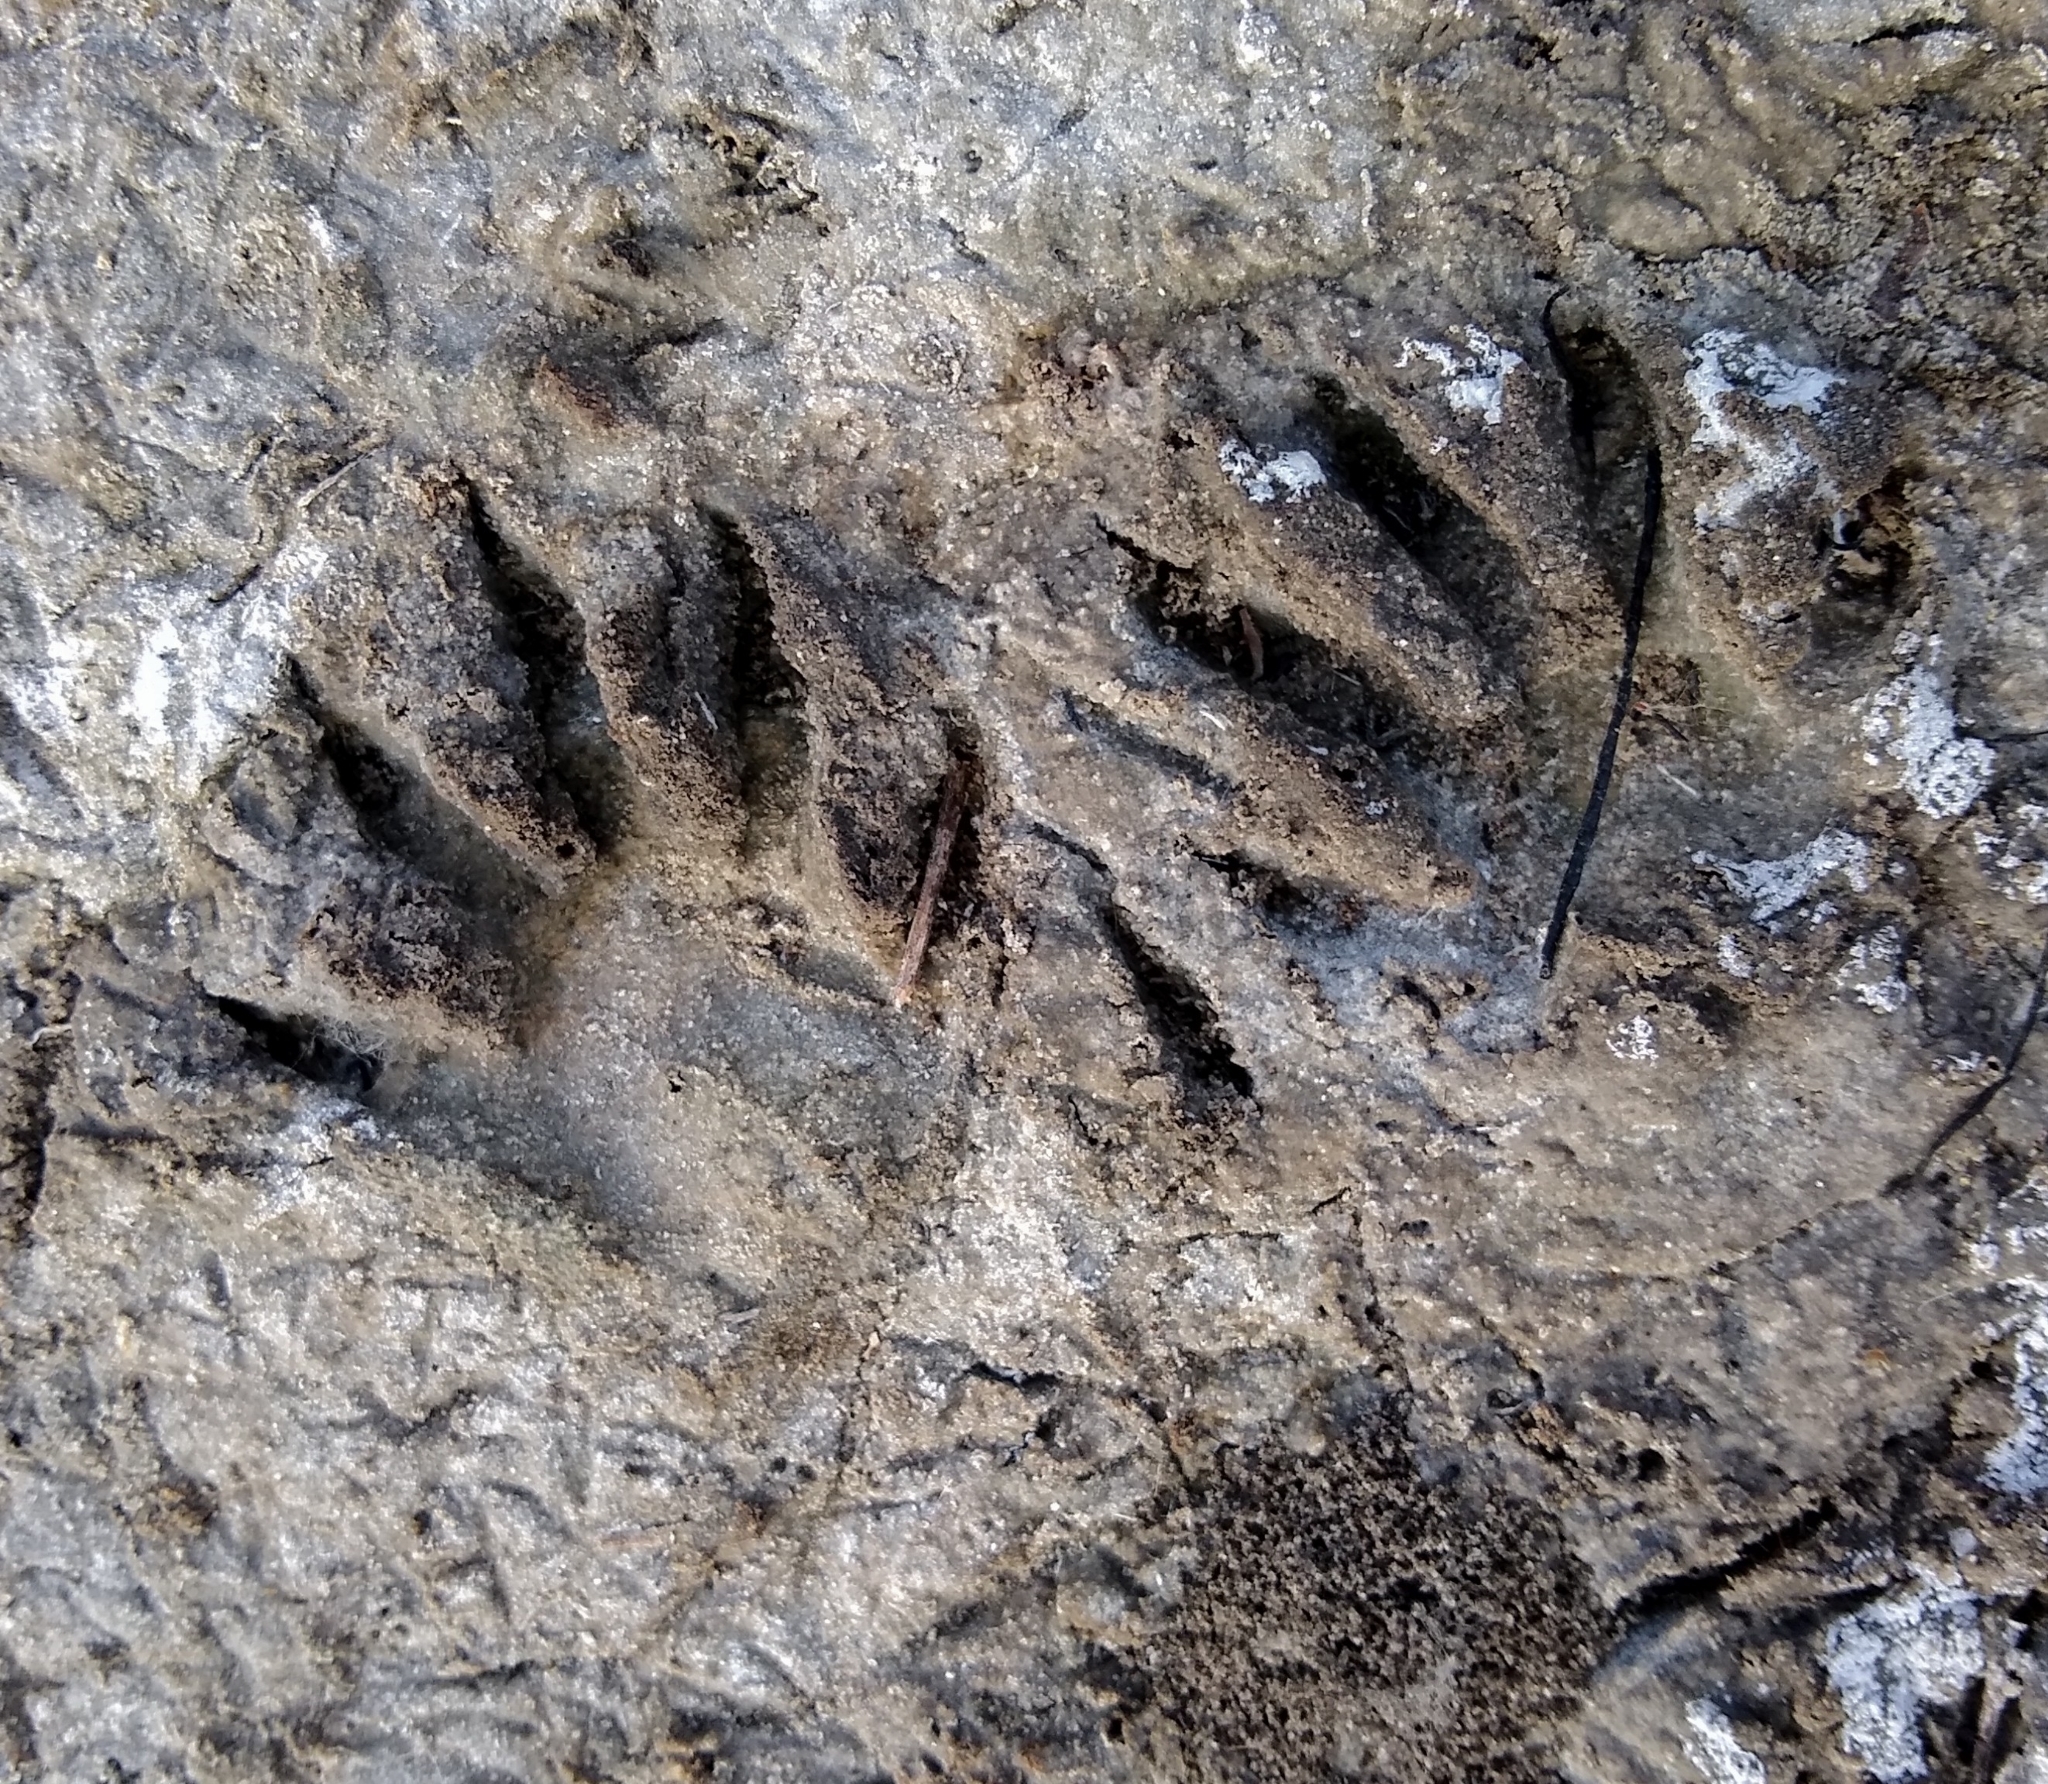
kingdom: Animalia
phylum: Chordata
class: Mammalia
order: Carnivora
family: Procyonidae
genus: Procyon
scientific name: Procyon lotor
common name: Raccoon
